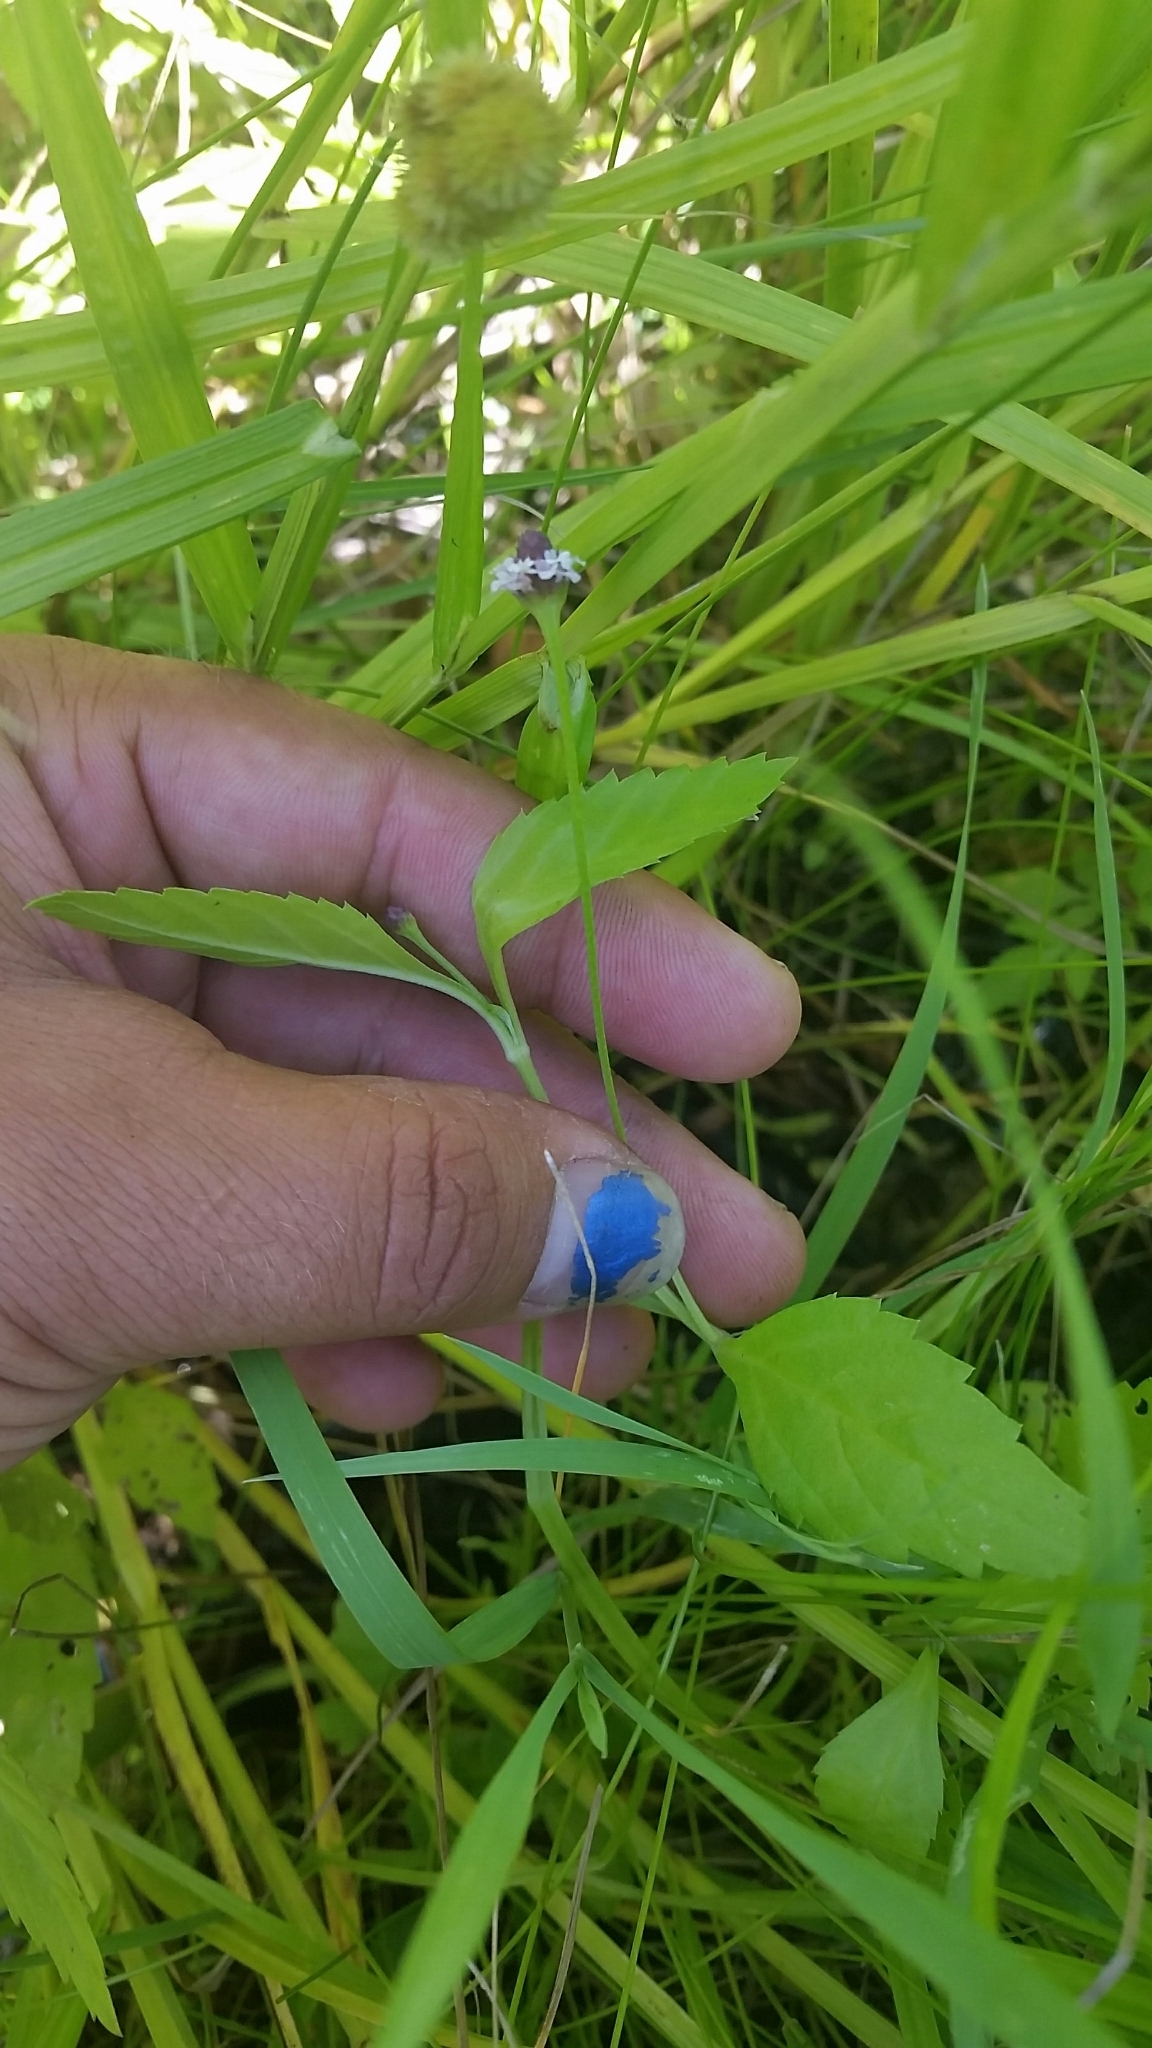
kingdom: Plantae
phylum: Tracheophyta
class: Magnoliopsida
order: Lamiales
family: Verbenaceae
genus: Phyla
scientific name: Phyla lanceolata
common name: Northern fogfruit
